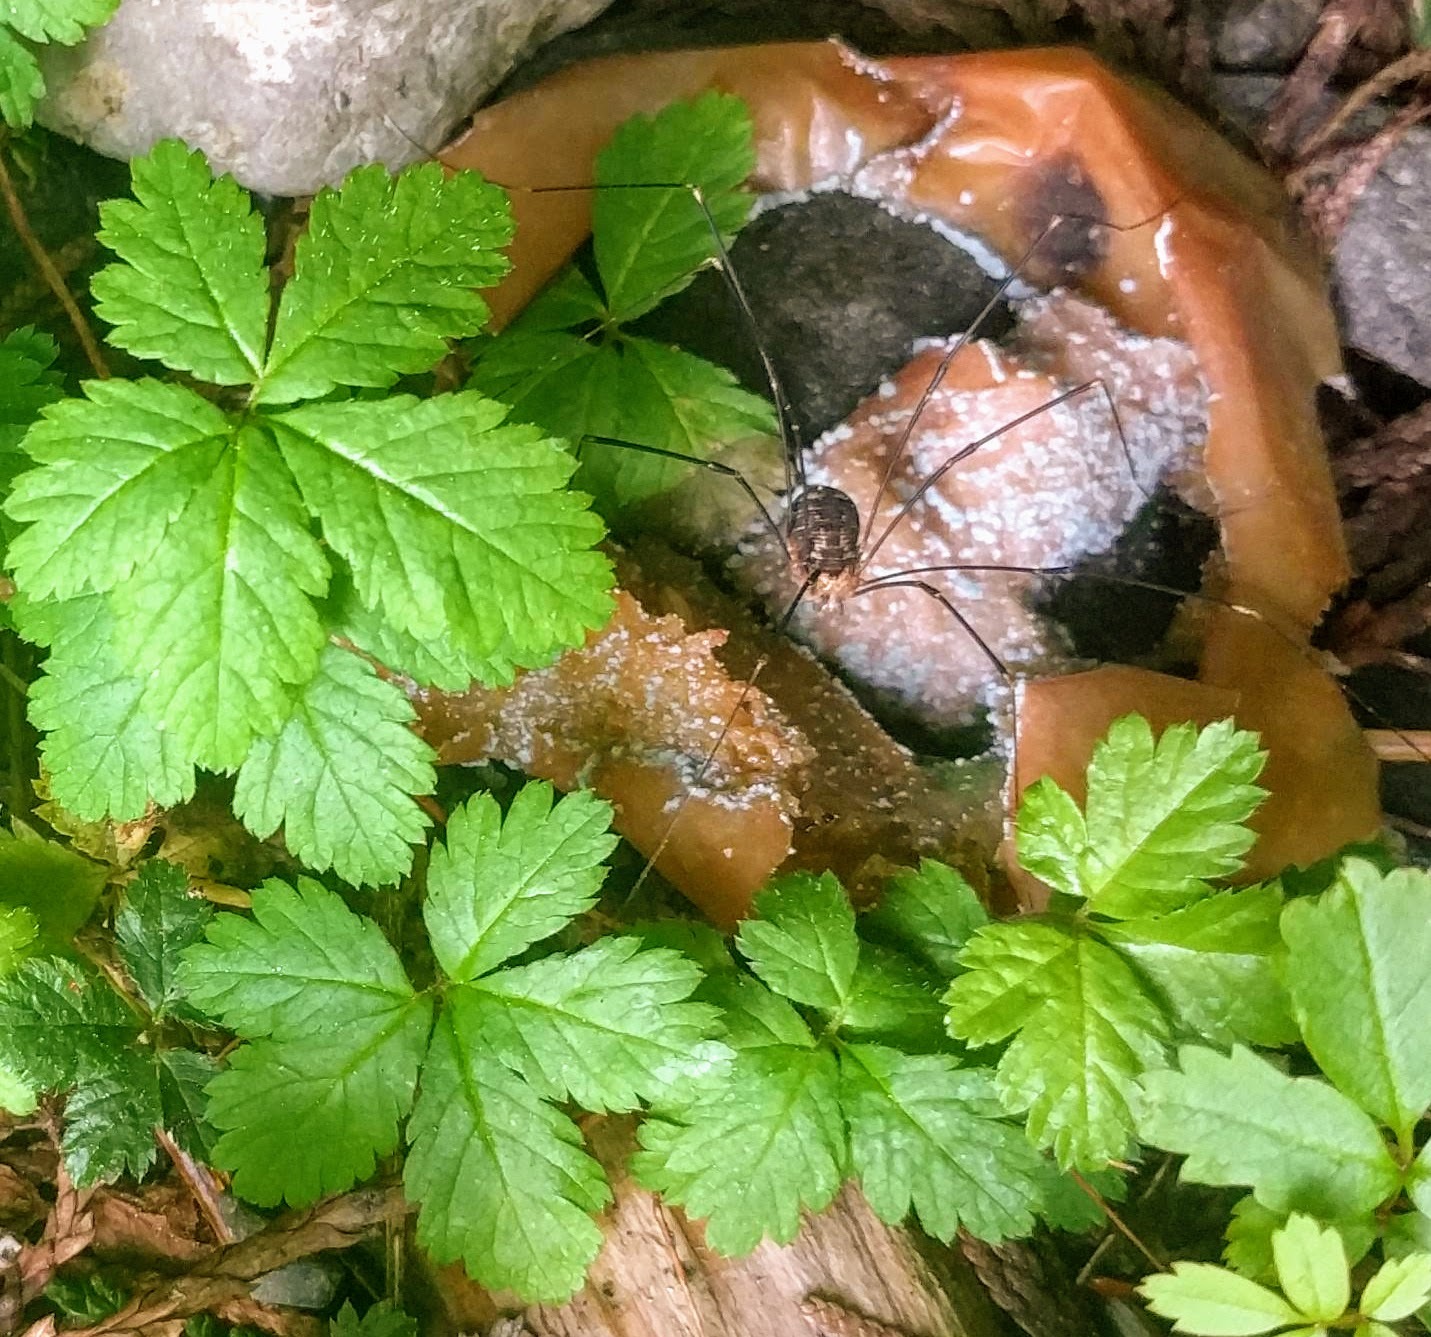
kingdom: Animalia
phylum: Arthropoda
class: Arachnida
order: Opiliones
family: Sclerosomatidae
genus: Nelima
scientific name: Nelima paessleri
